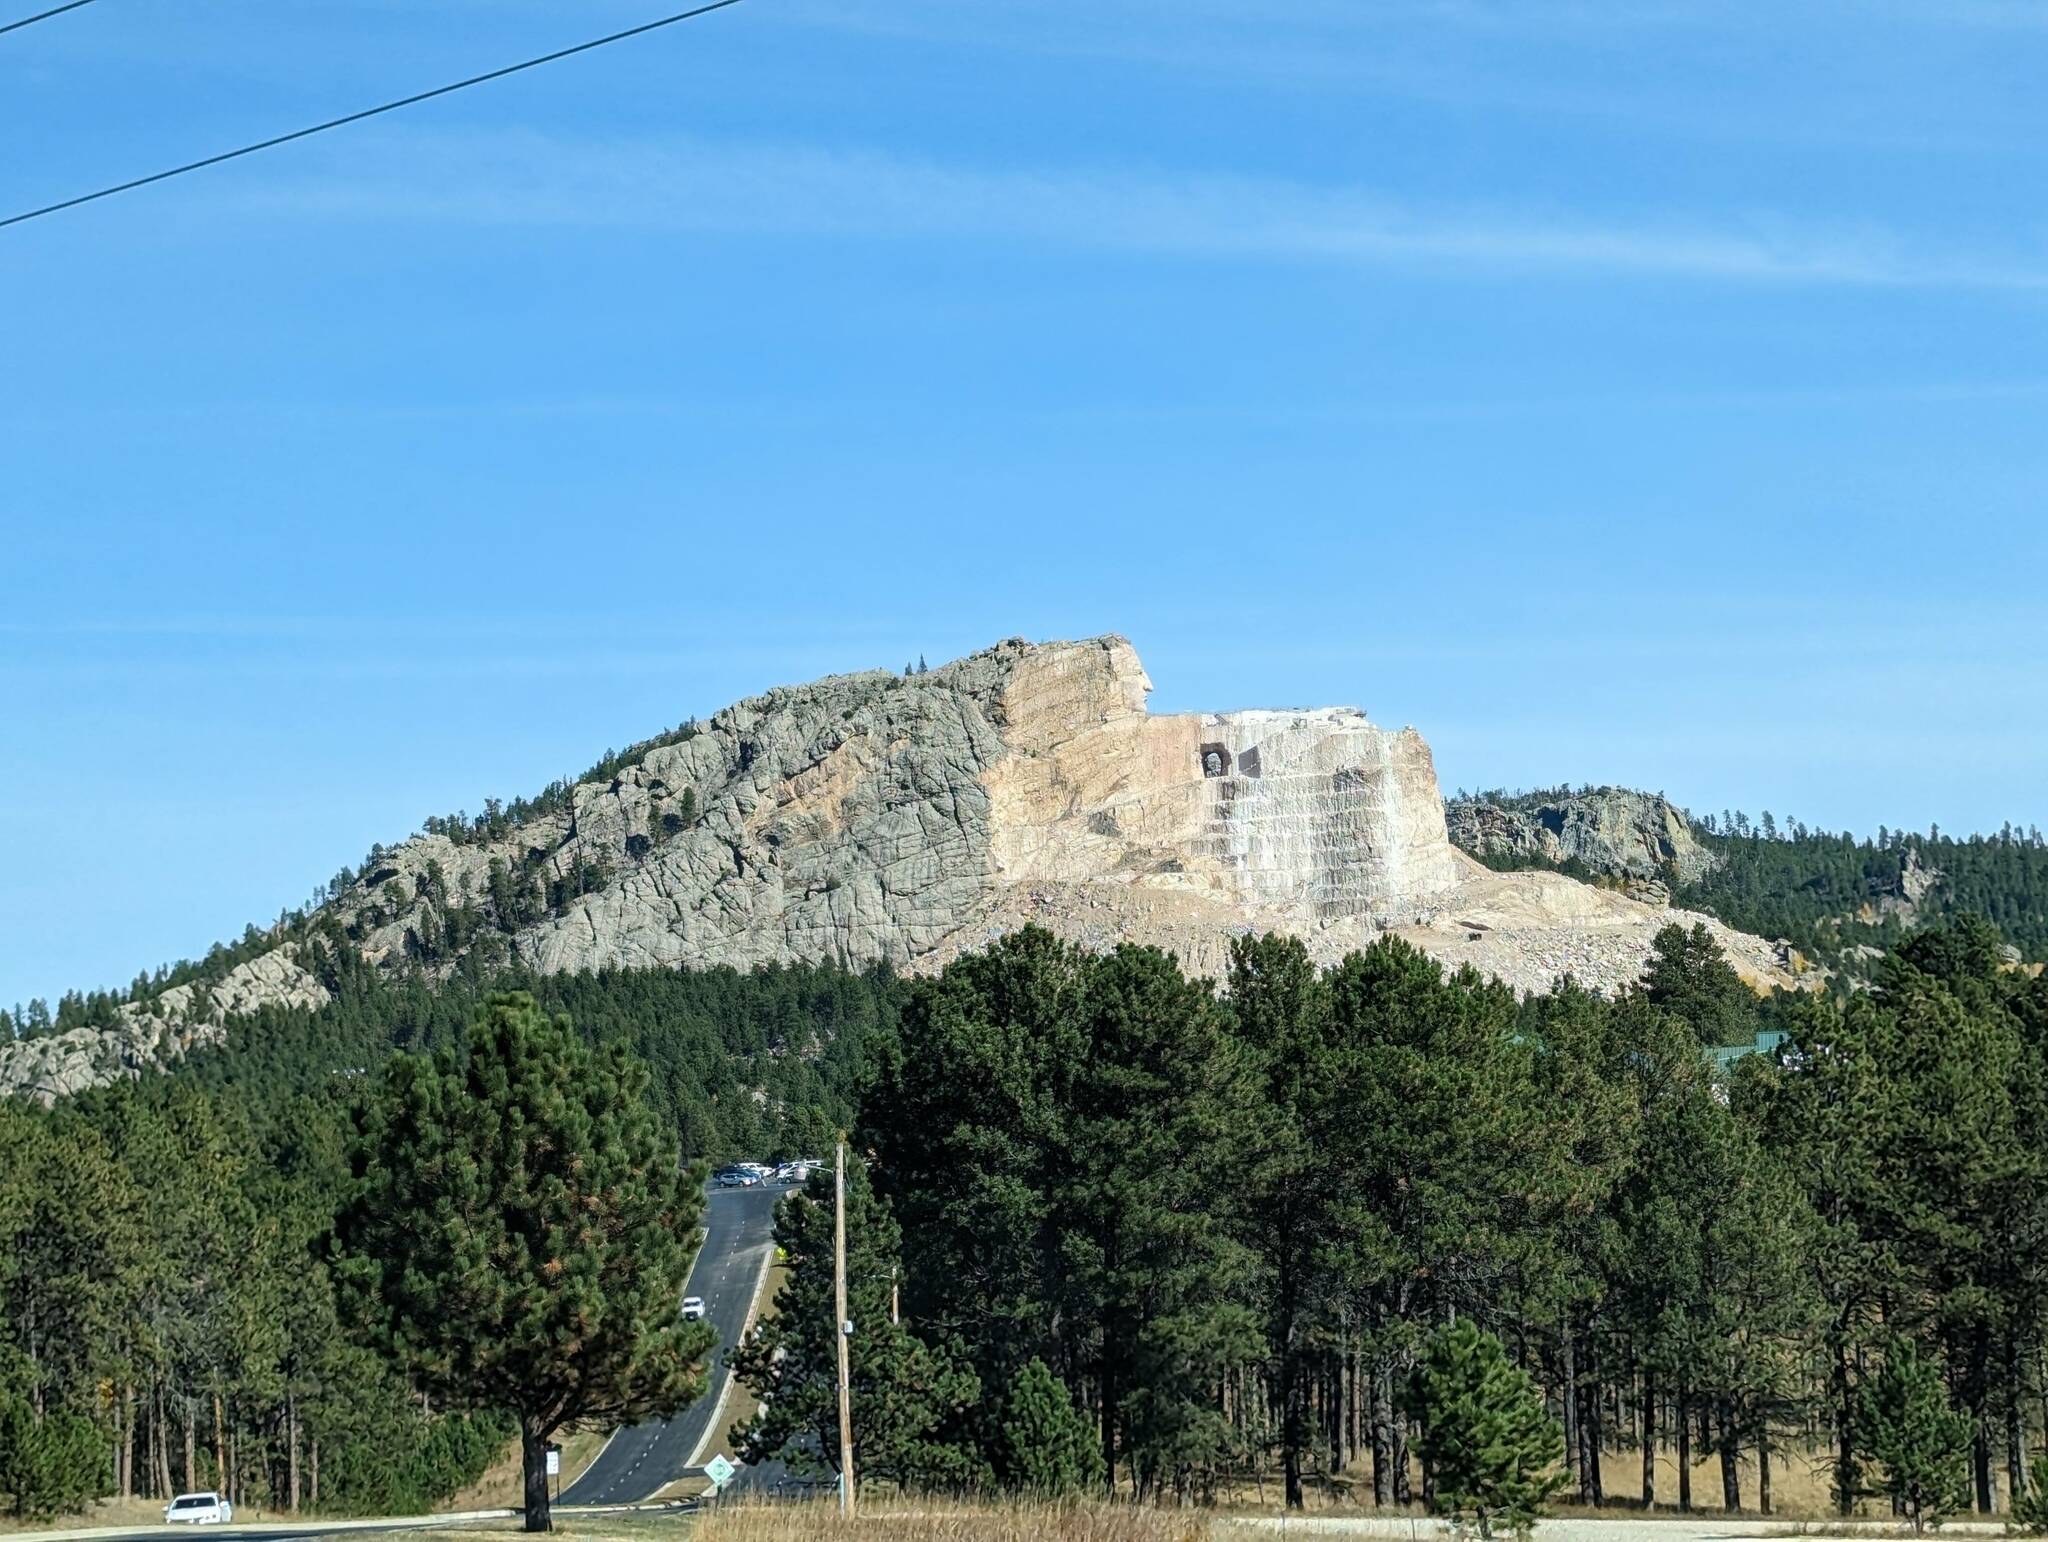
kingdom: Plantae
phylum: Tracheophyta
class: Pinopsida
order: Pinales
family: Pinaceae
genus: Pinus
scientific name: Pinus ponderosa
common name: Western yellow-pine
